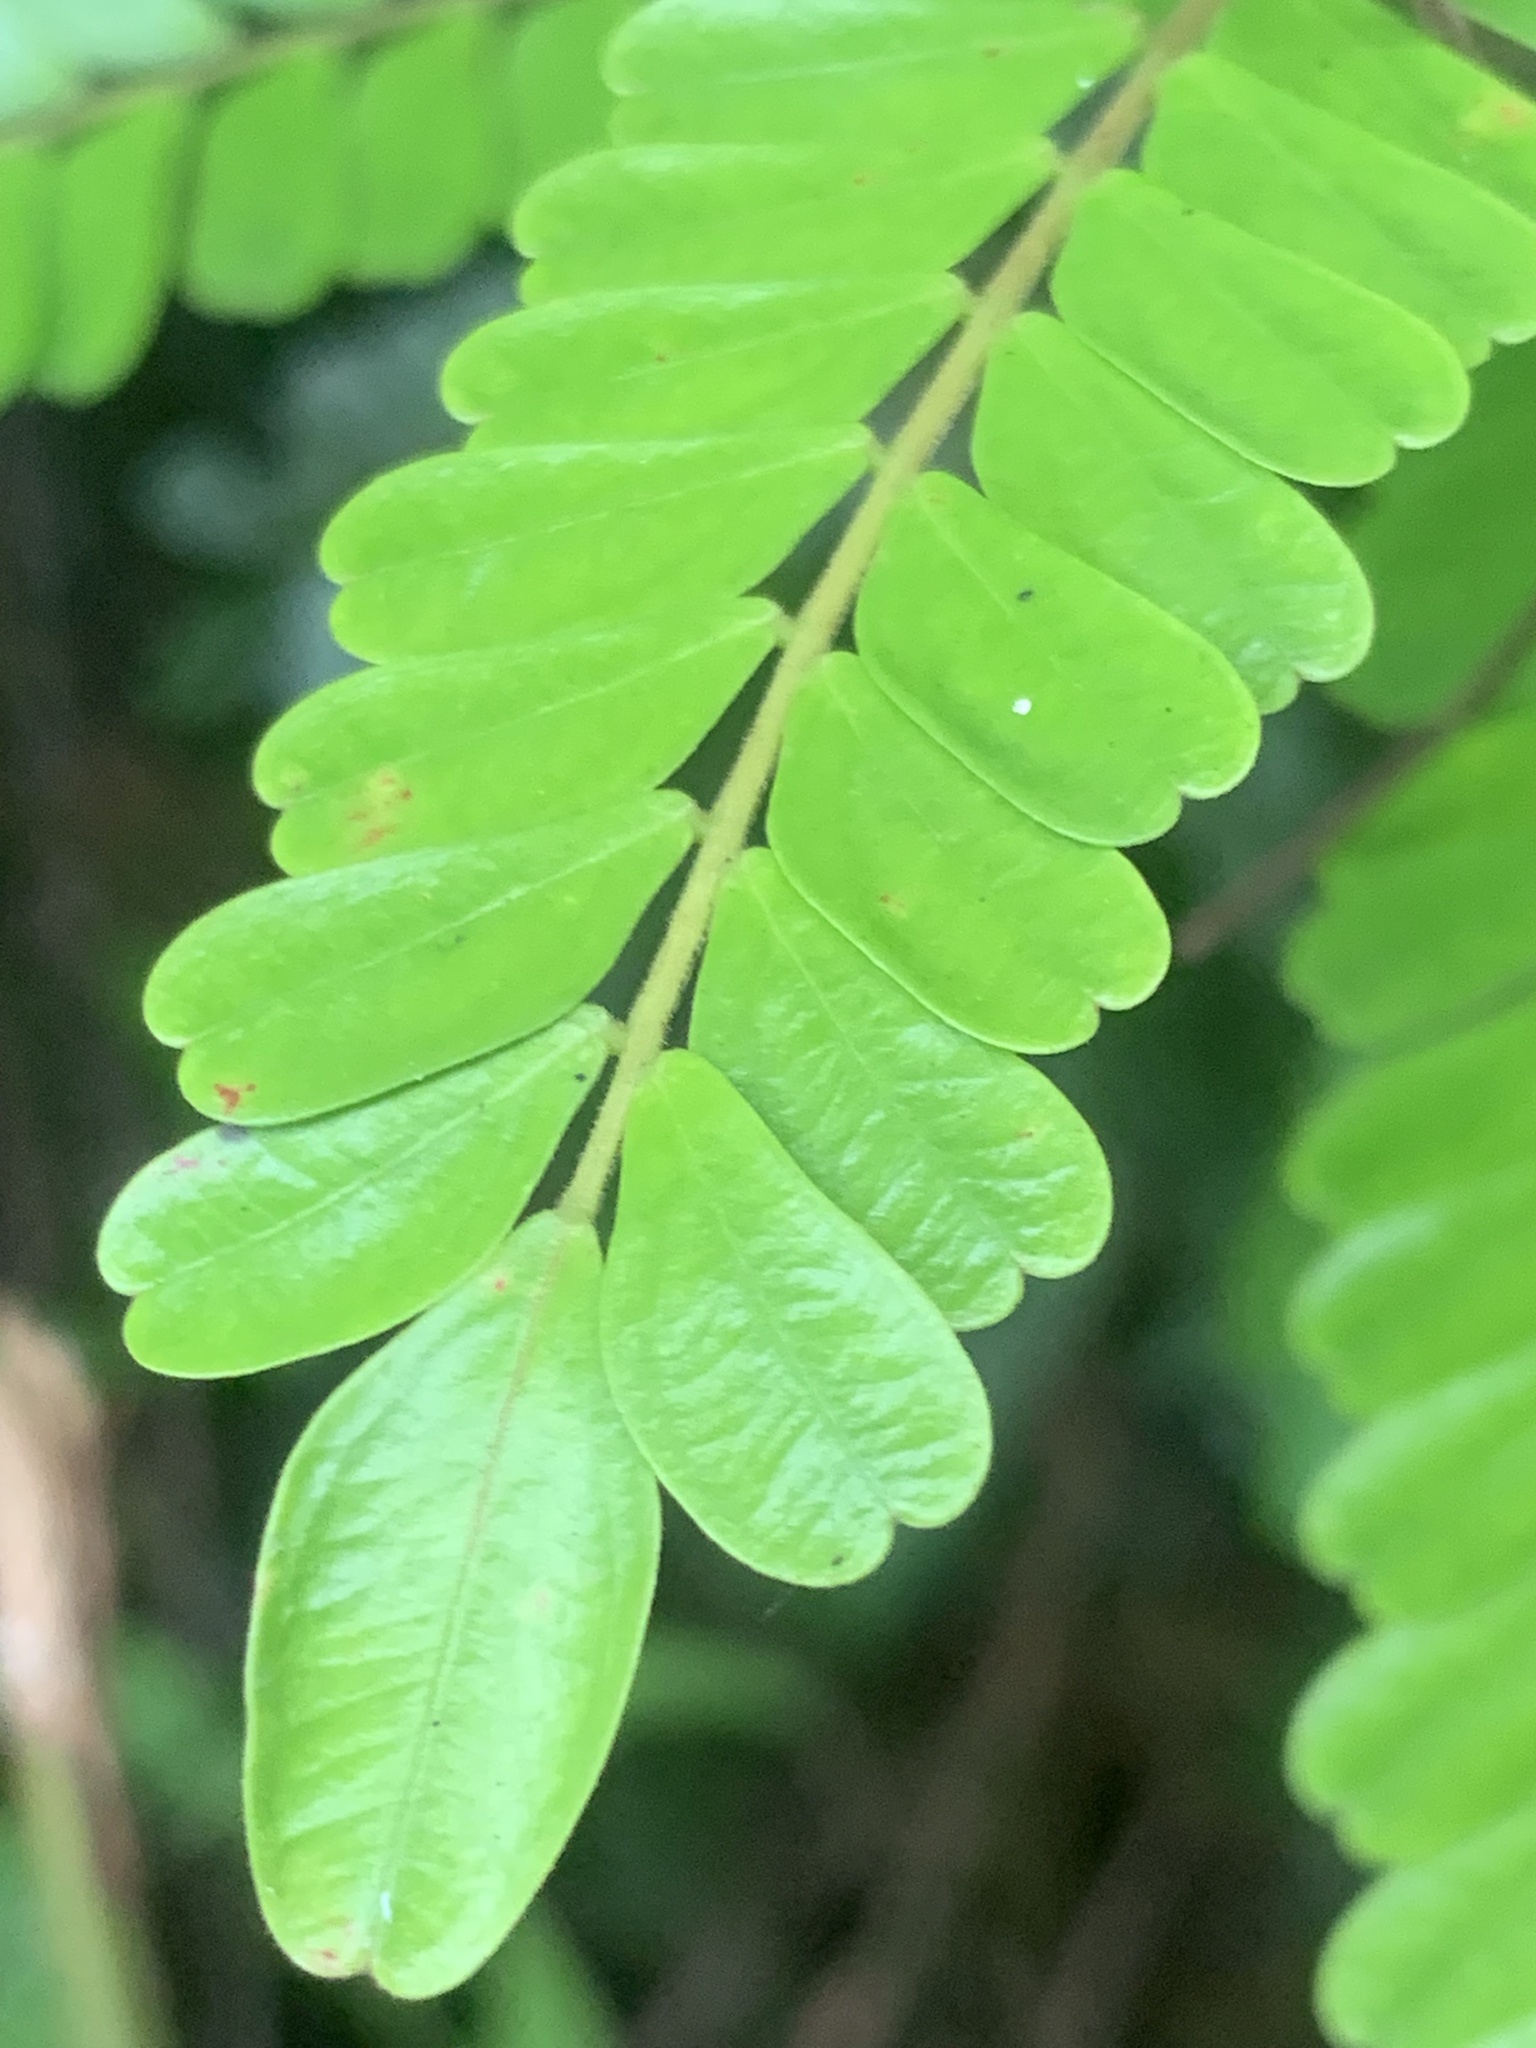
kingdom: Plantae
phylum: Tracheophyta
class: Magnoliopsida
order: Oxalidales
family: Connaraceae
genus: Rourea
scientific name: Rourea aspleniifolia
